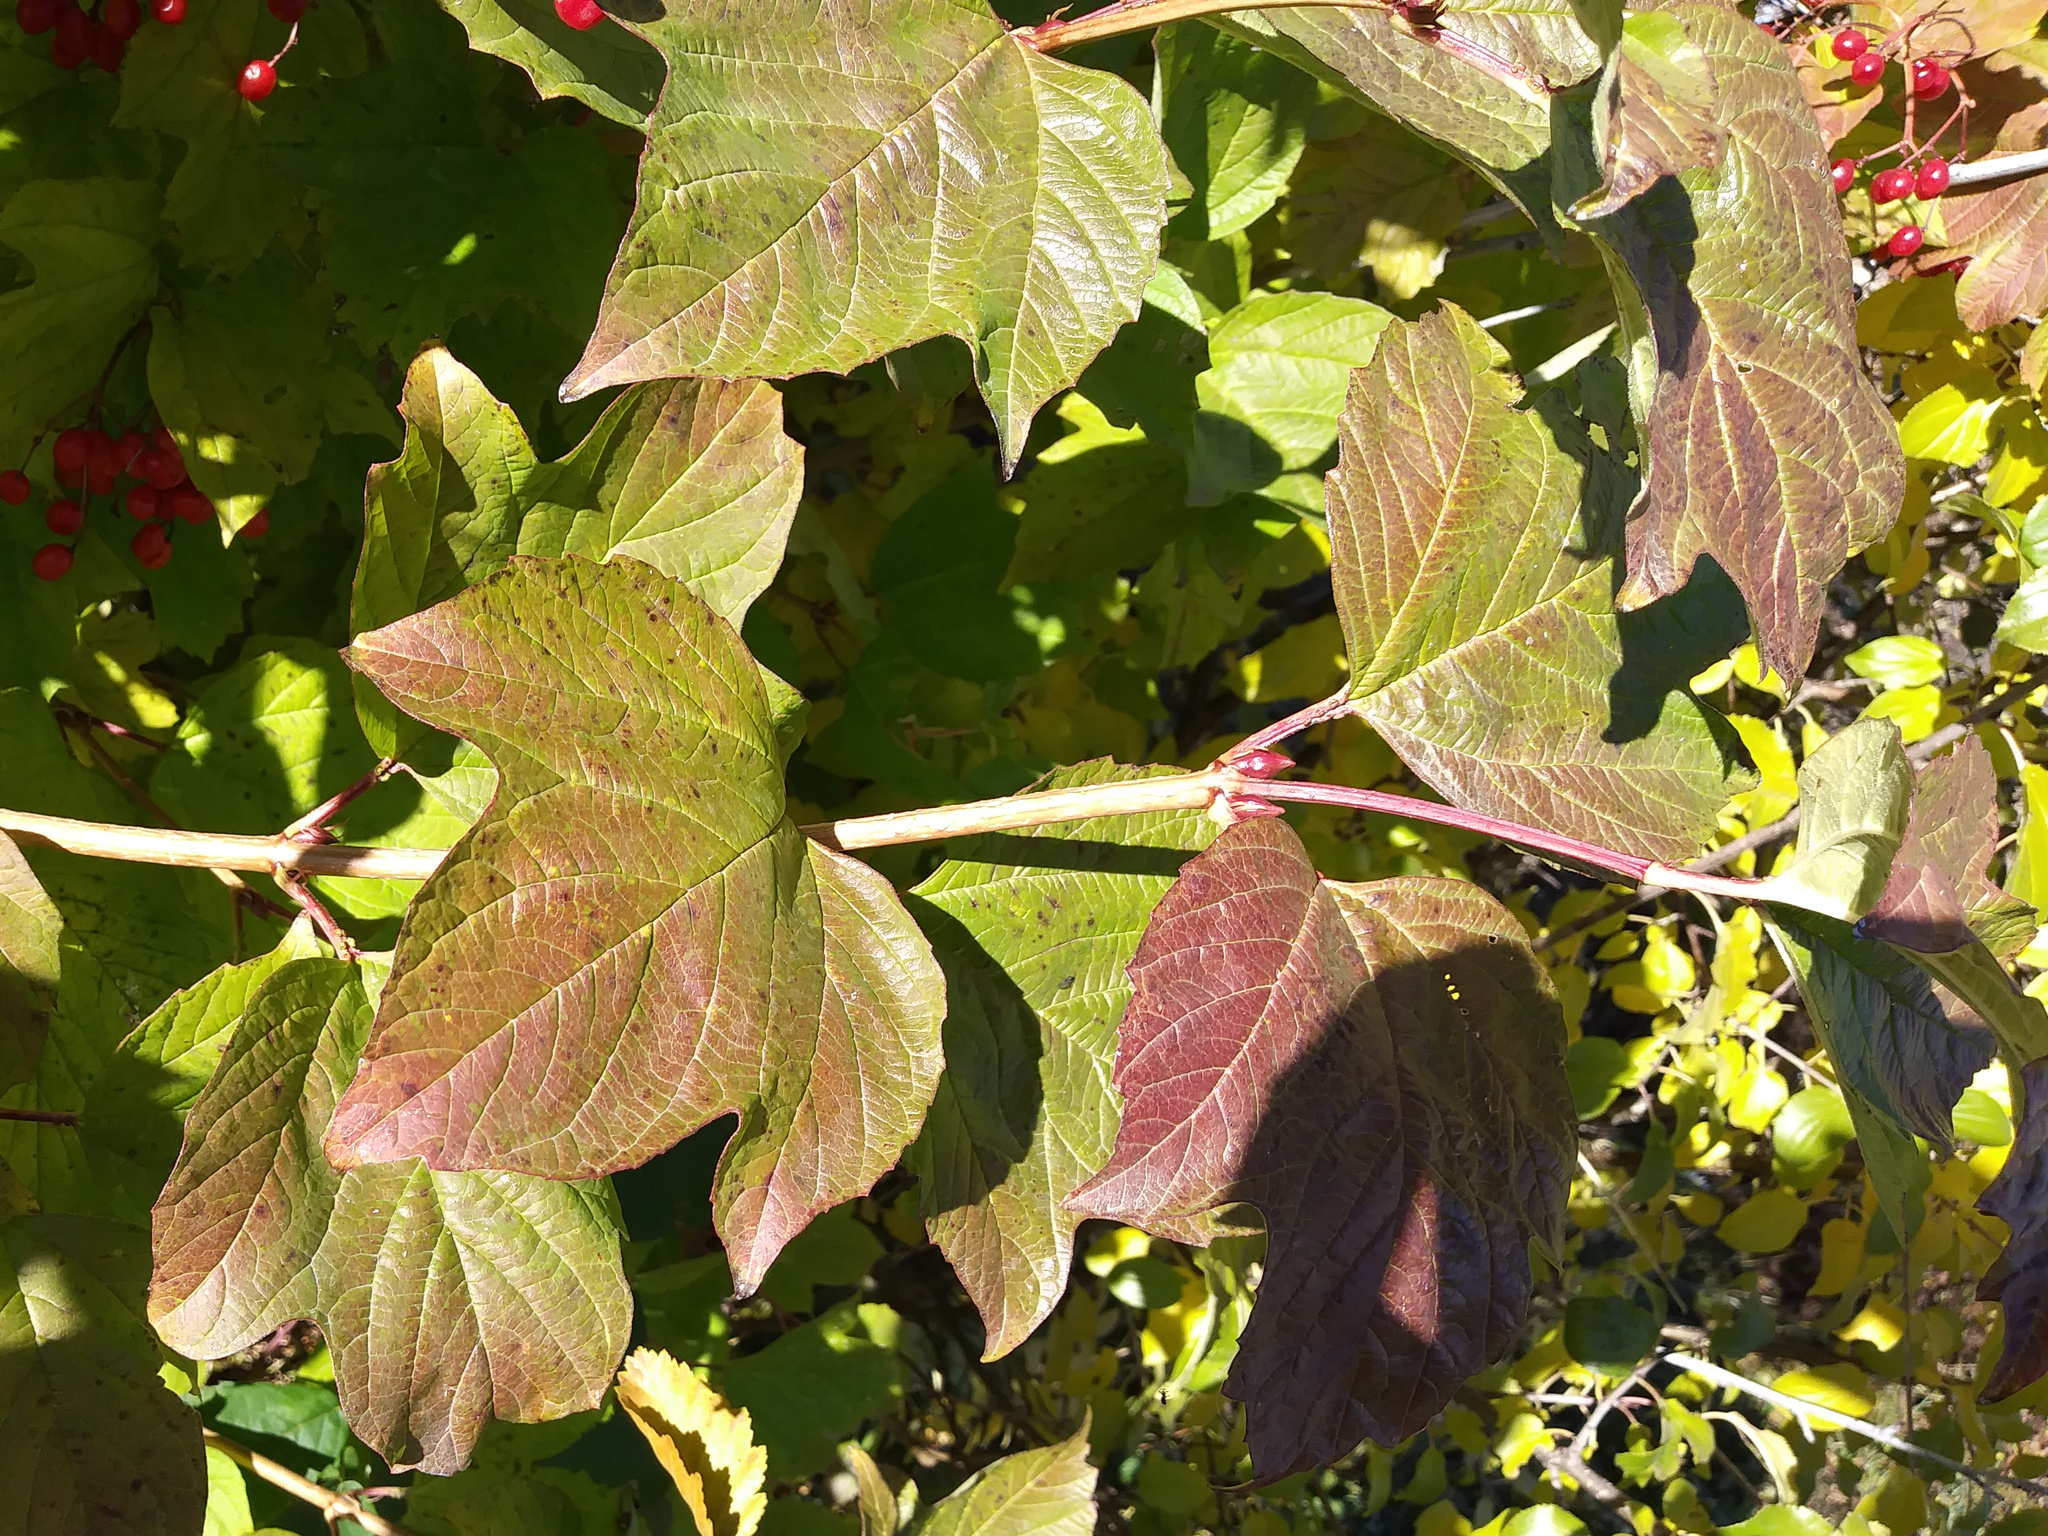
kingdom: Plantae
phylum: Tracheophyta
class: Magnoliopsida
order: Dipsacales
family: Viburnaceae
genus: Viburnum
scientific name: Viburnum opulus
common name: Guelder-rose
